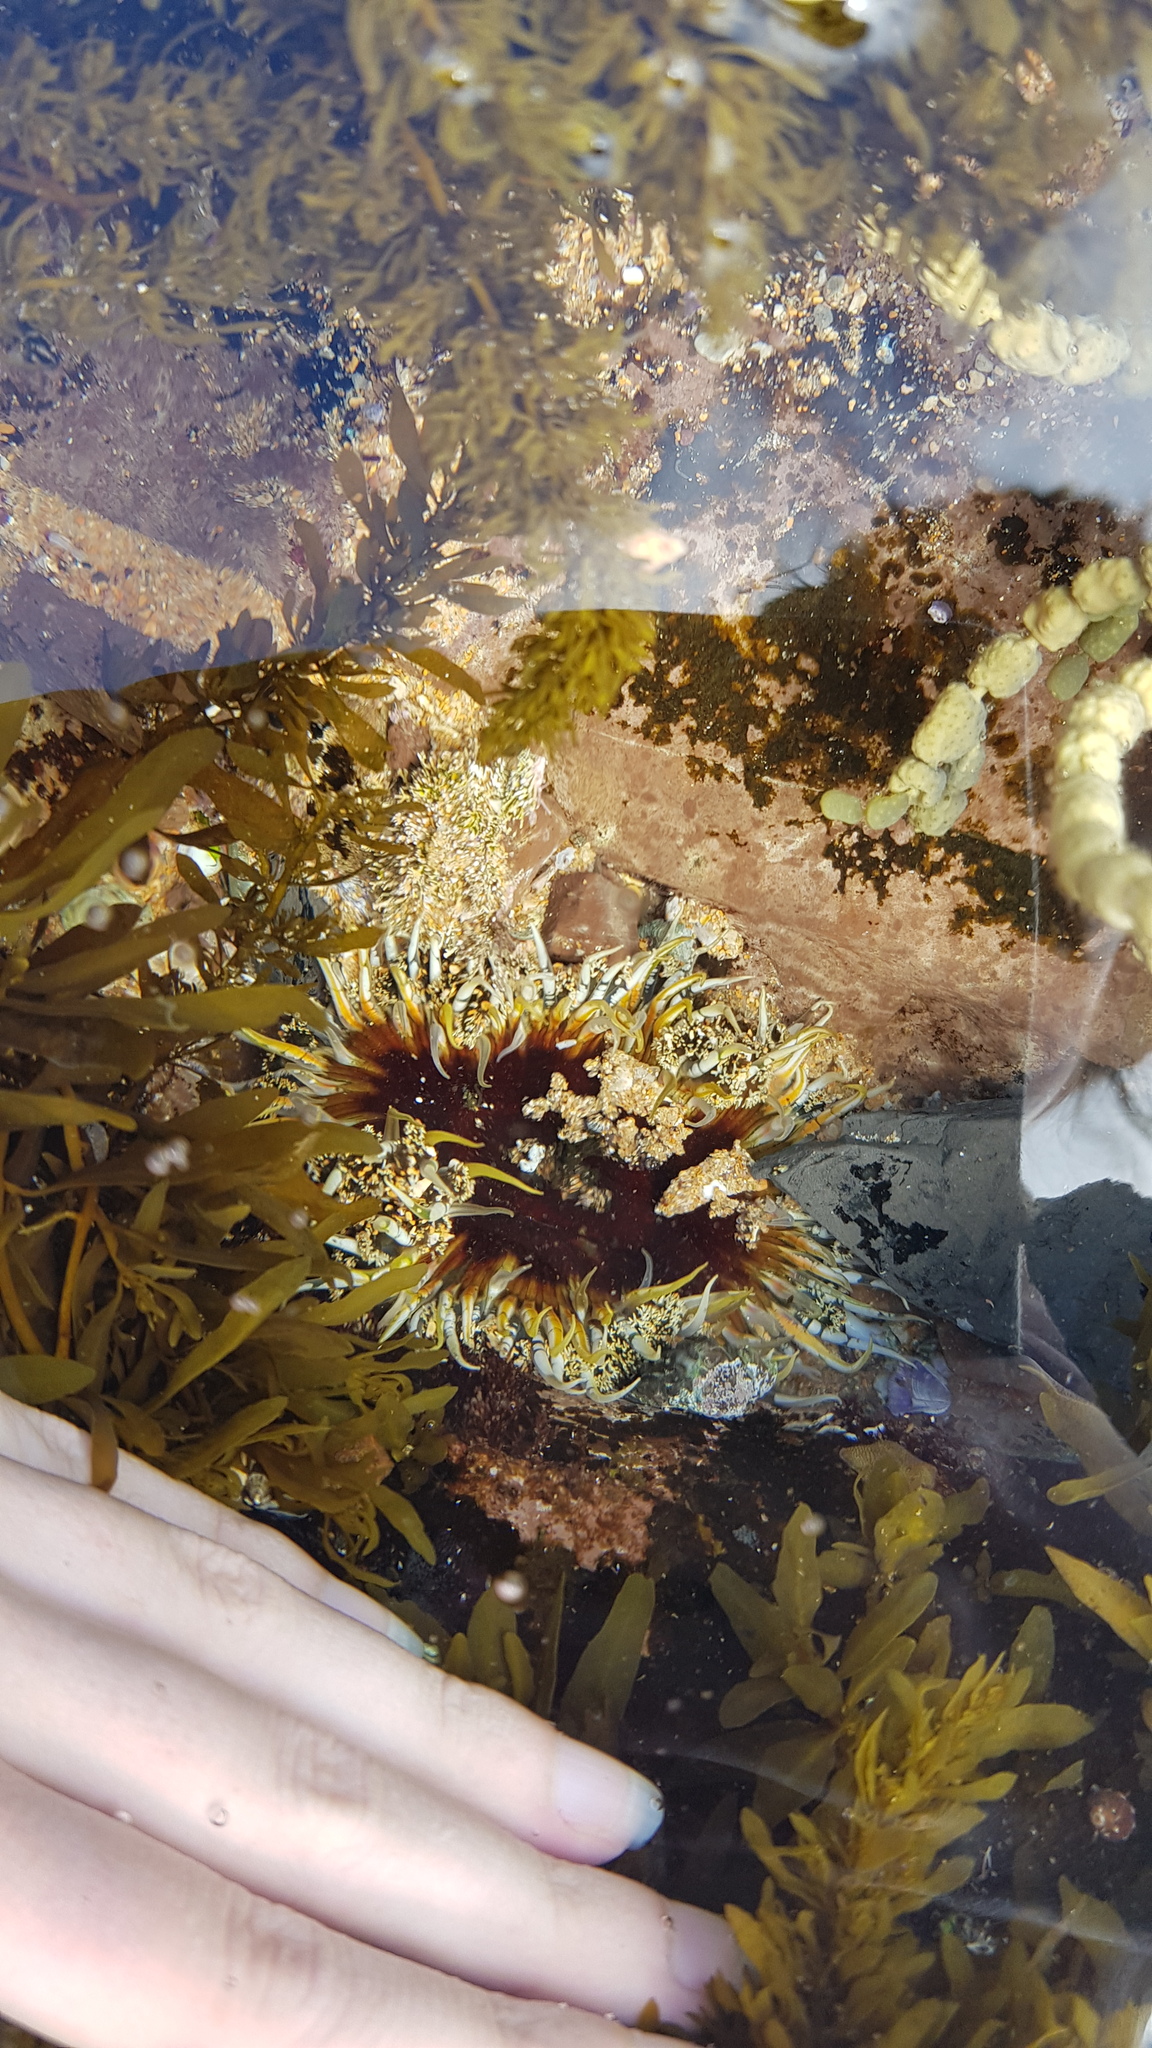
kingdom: Animalia
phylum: Cnidaria
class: Anthozoa
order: Actiniaria
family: Actiniidae
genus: Oulactis
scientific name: Oulactis muscosa
